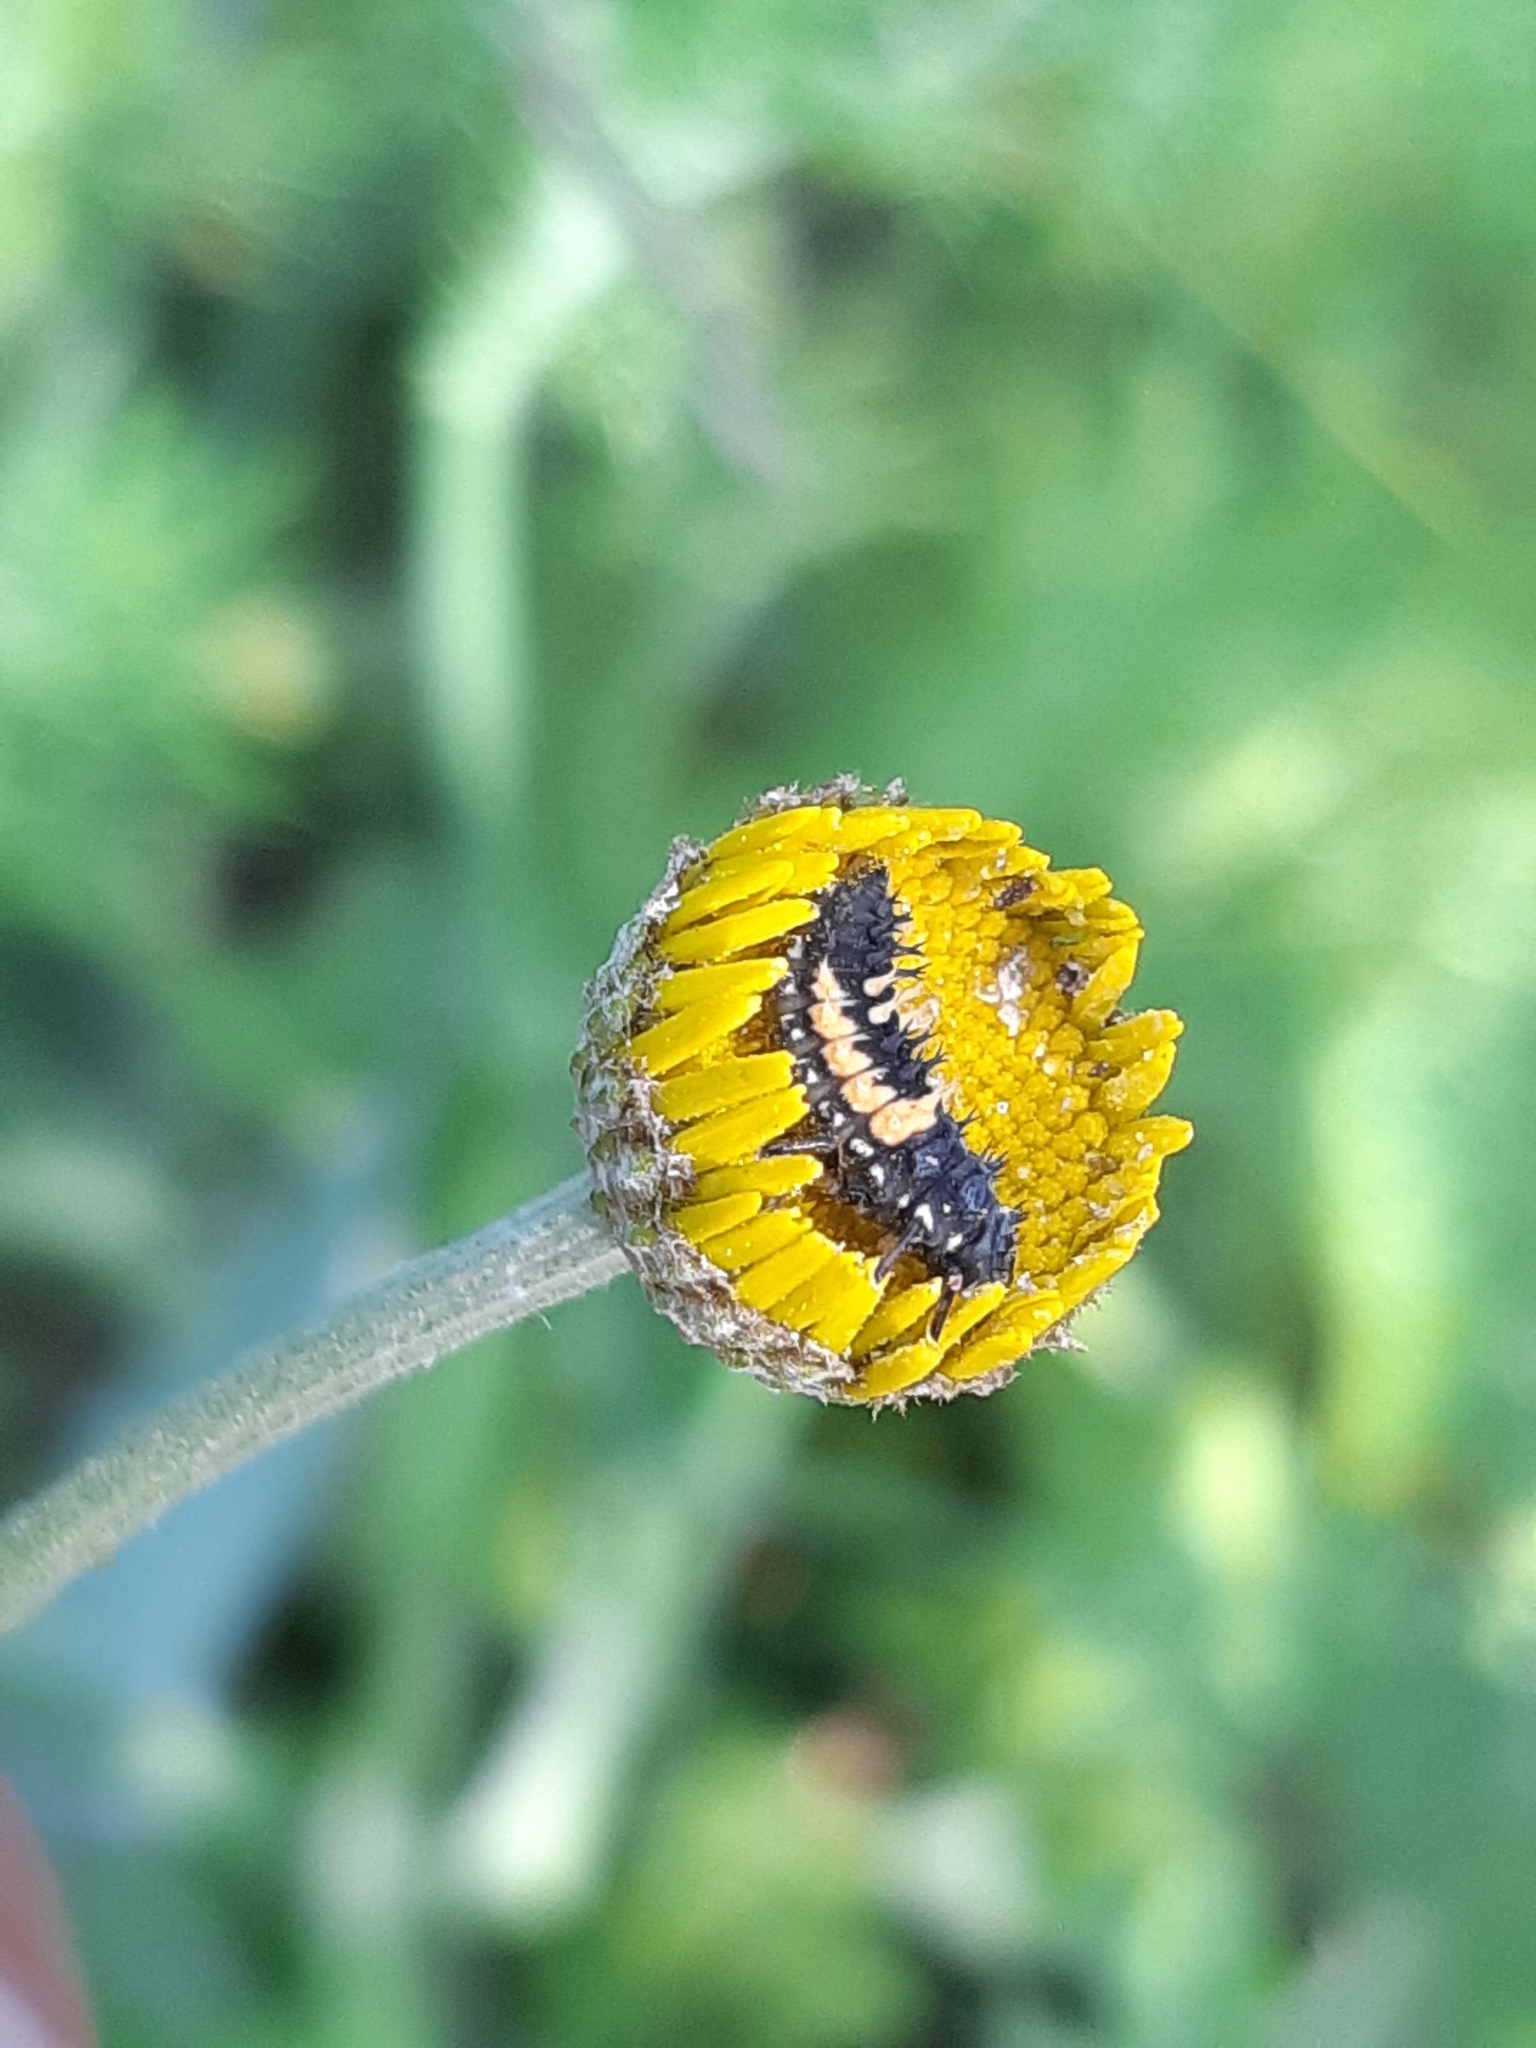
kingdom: Animalia
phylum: Arthropoda
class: Insecta
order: Coleoptera
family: Coccinellidae
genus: Harmonia
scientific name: Harmonia axyridis
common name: Harlequin ladybird
